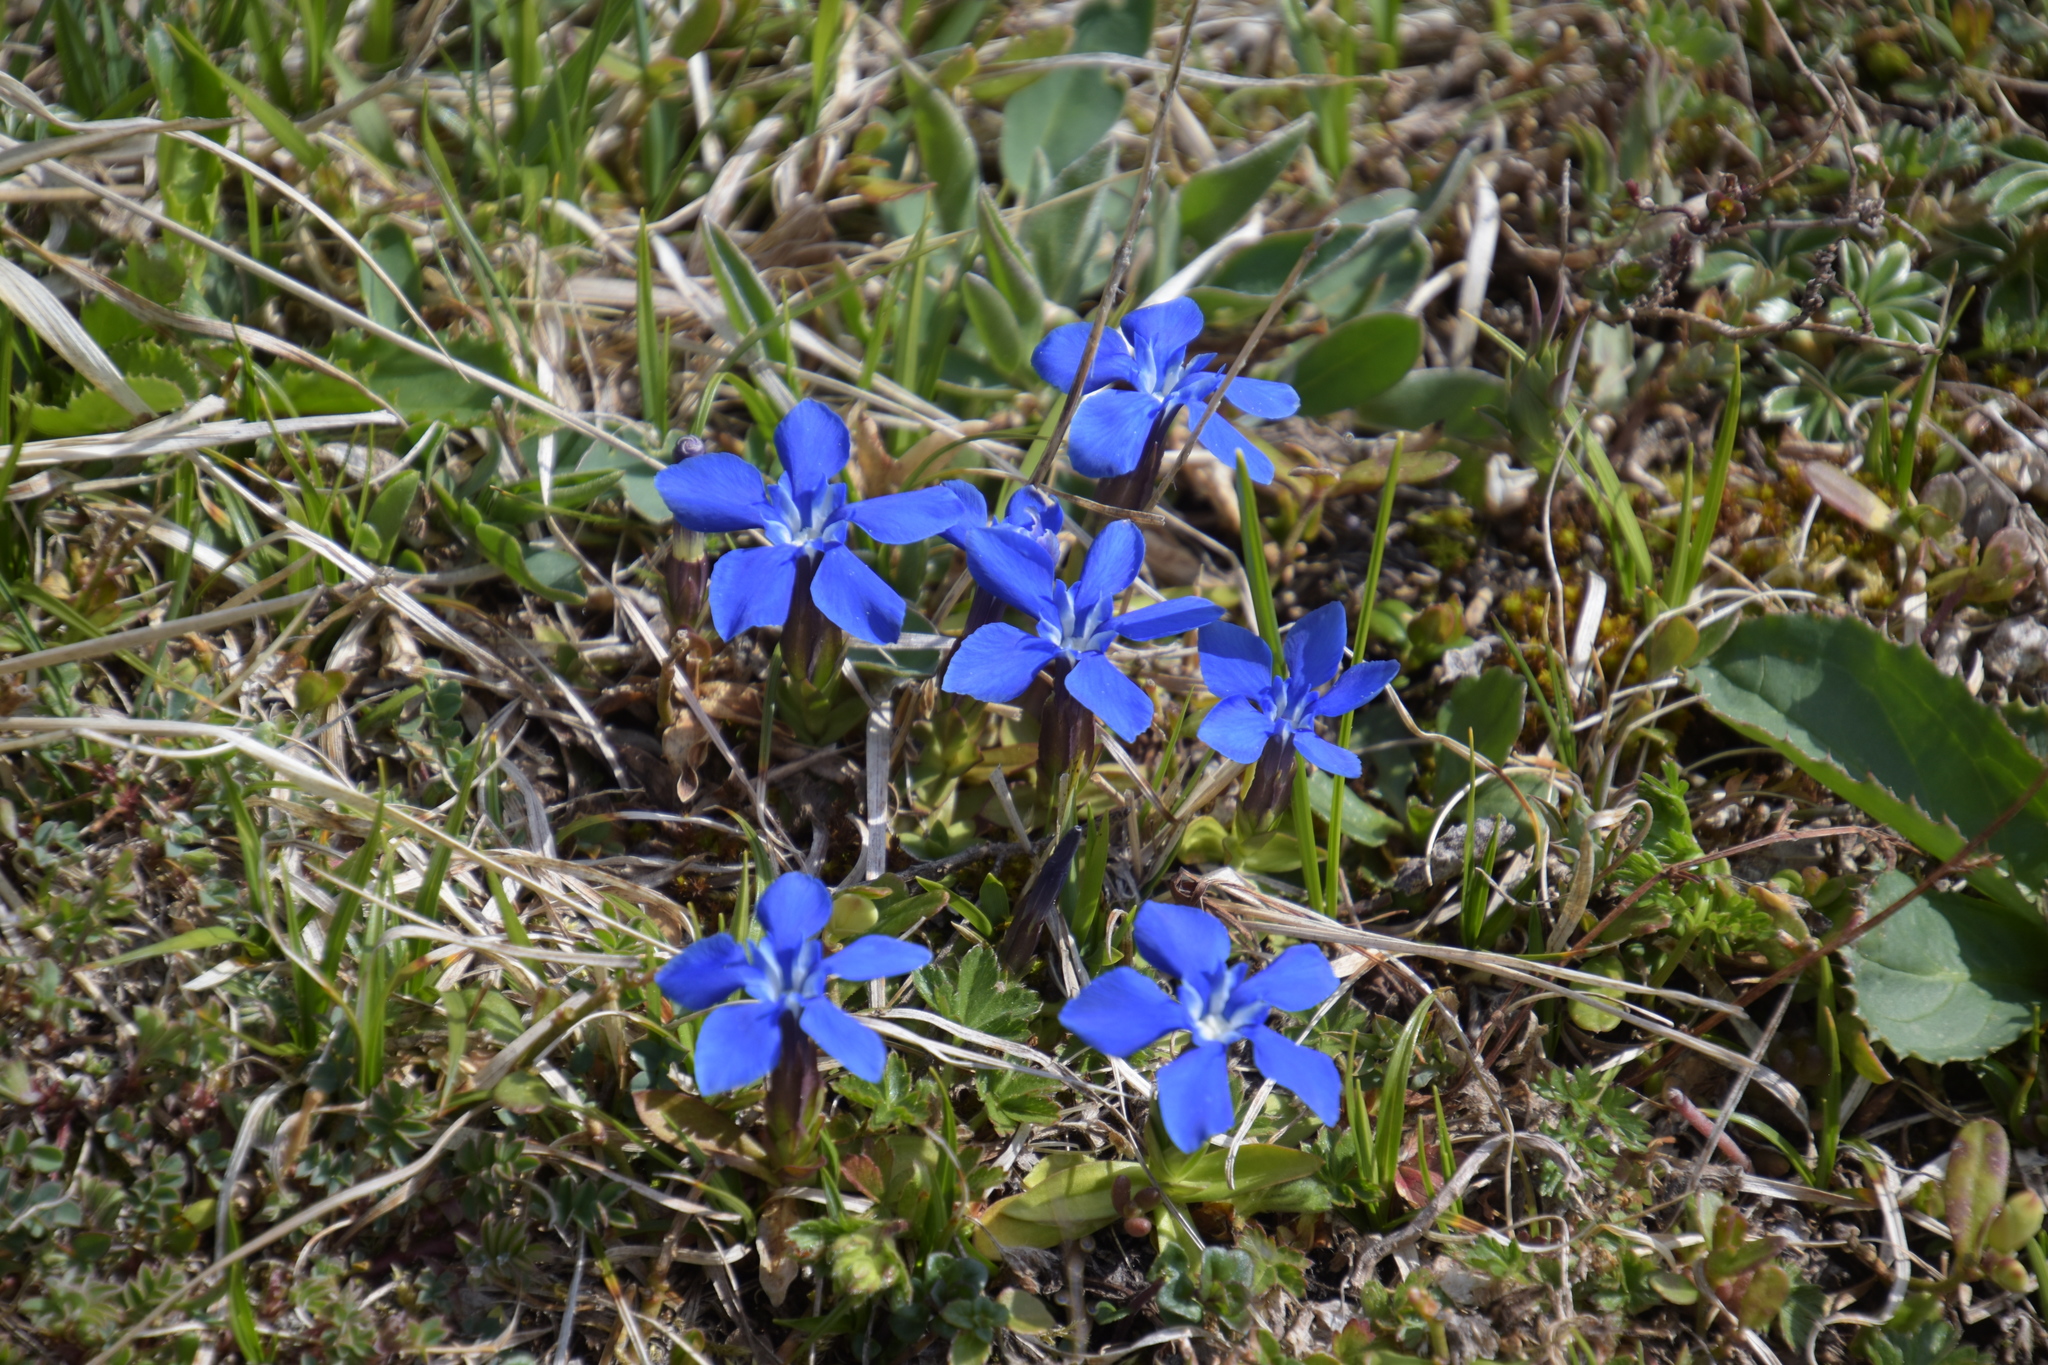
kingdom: Plantae
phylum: Tracheophyta
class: Magnoliopsida
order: Gentianales
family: Gentianaceae
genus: Gentiana
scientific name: Gentiana verna
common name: Spring gentian
